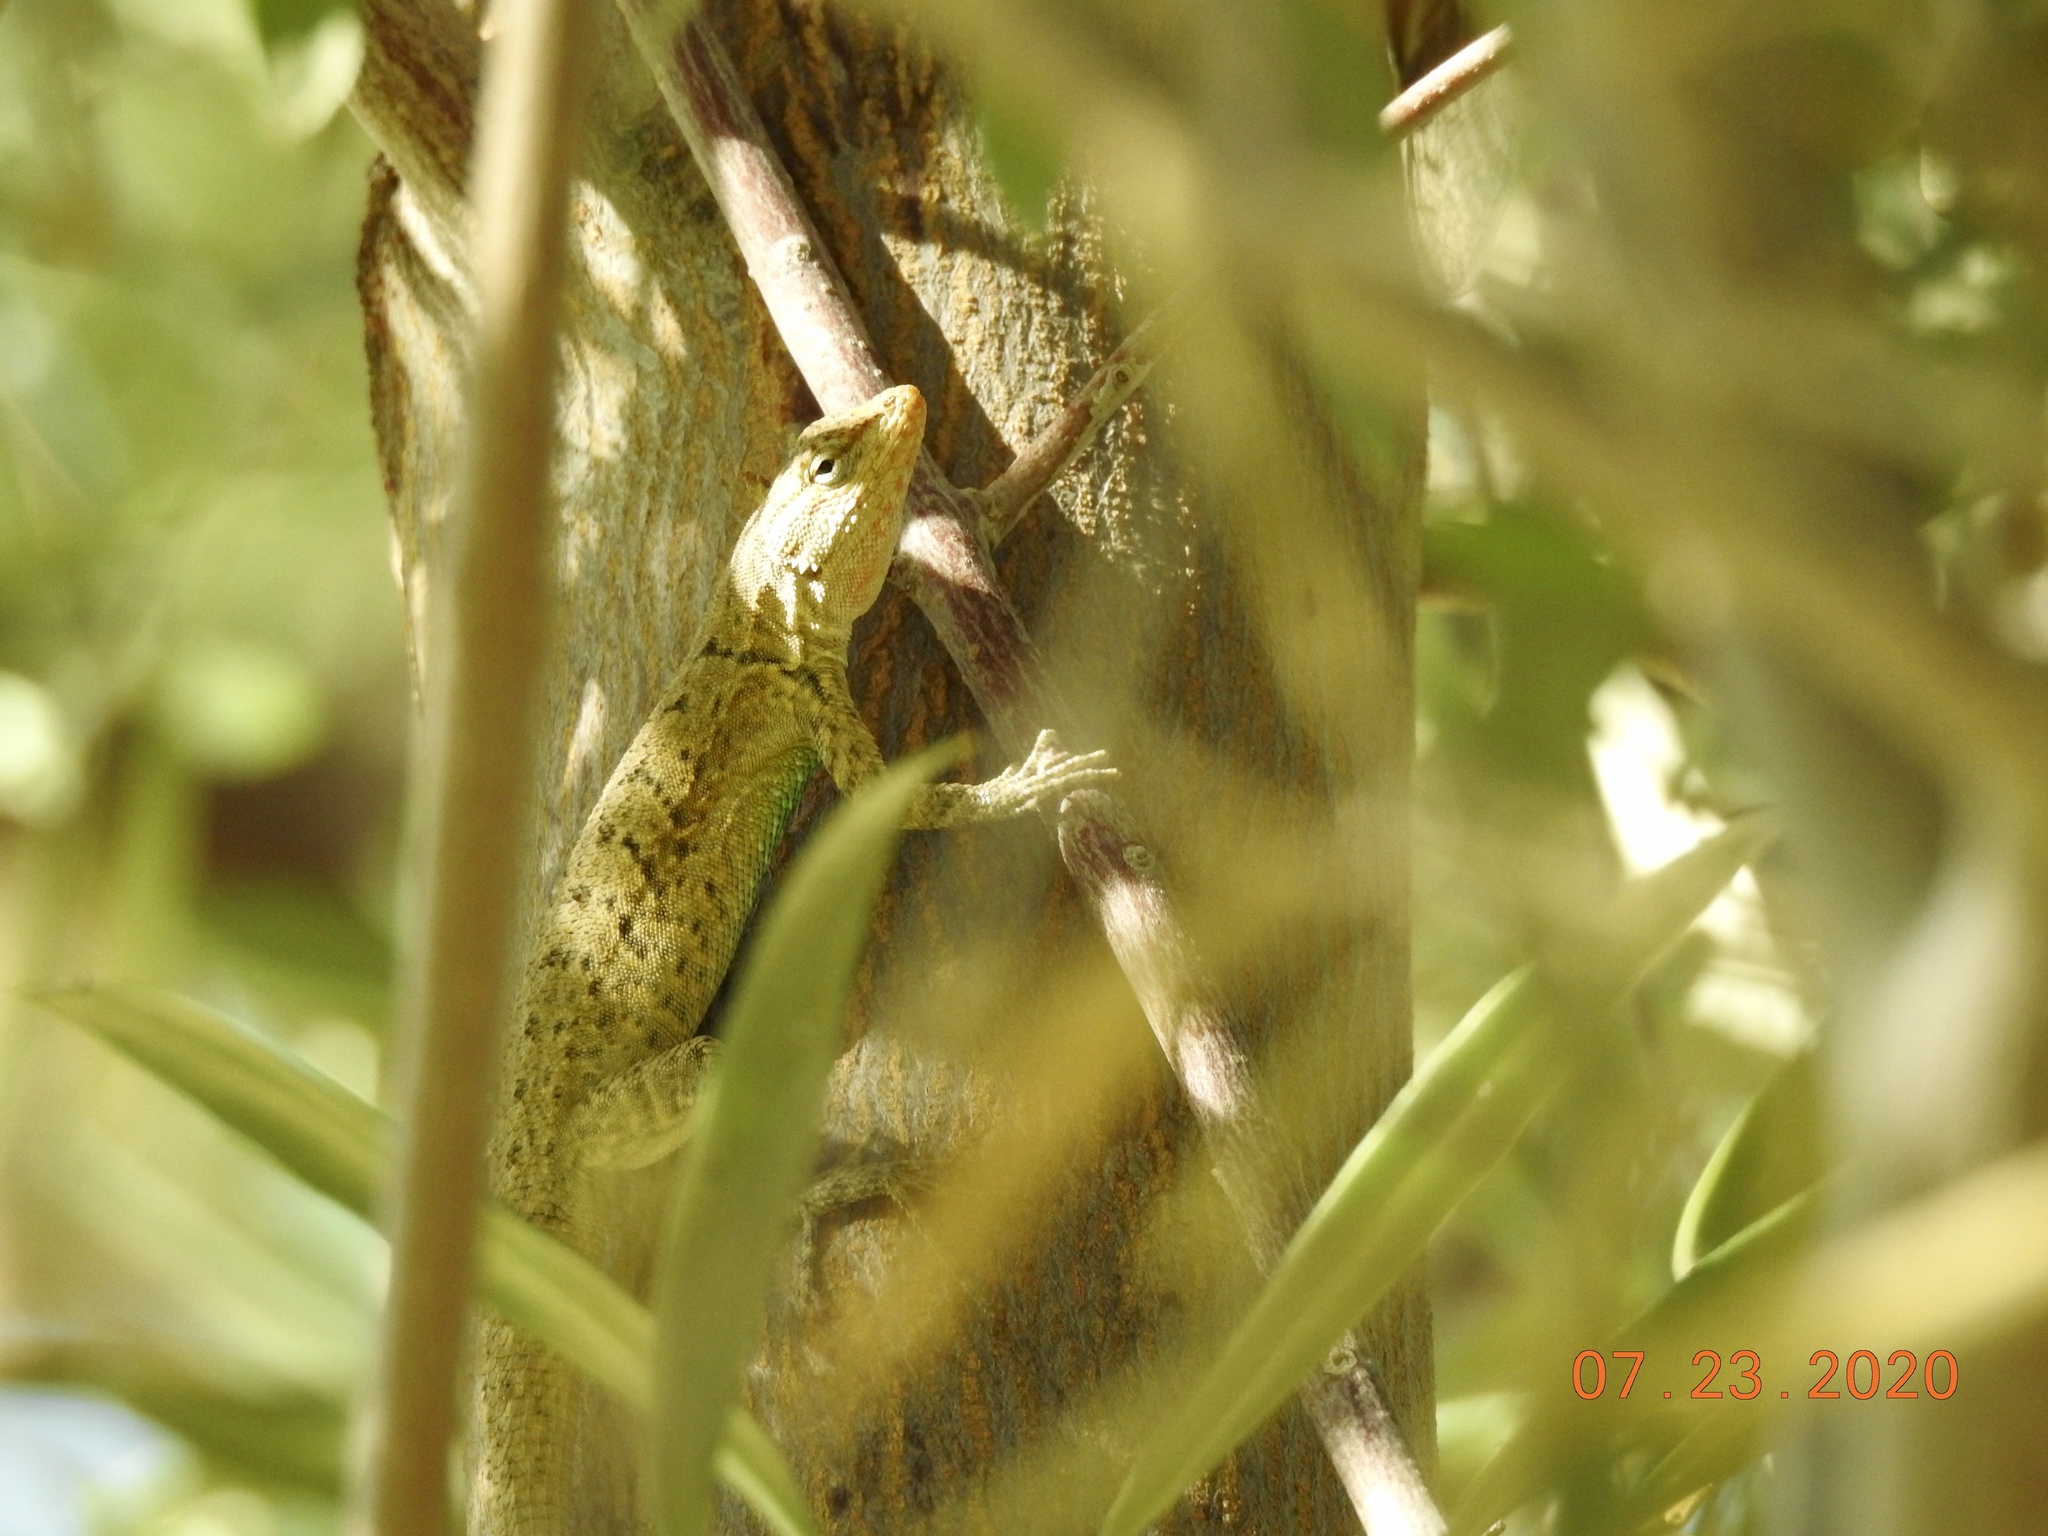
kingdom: Animalia
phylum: Chordata
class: Squamata
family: Phrynosomatidae
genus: Urosaurus
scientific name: Urosaurus graciosus
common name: Long-tailed brush lizard
